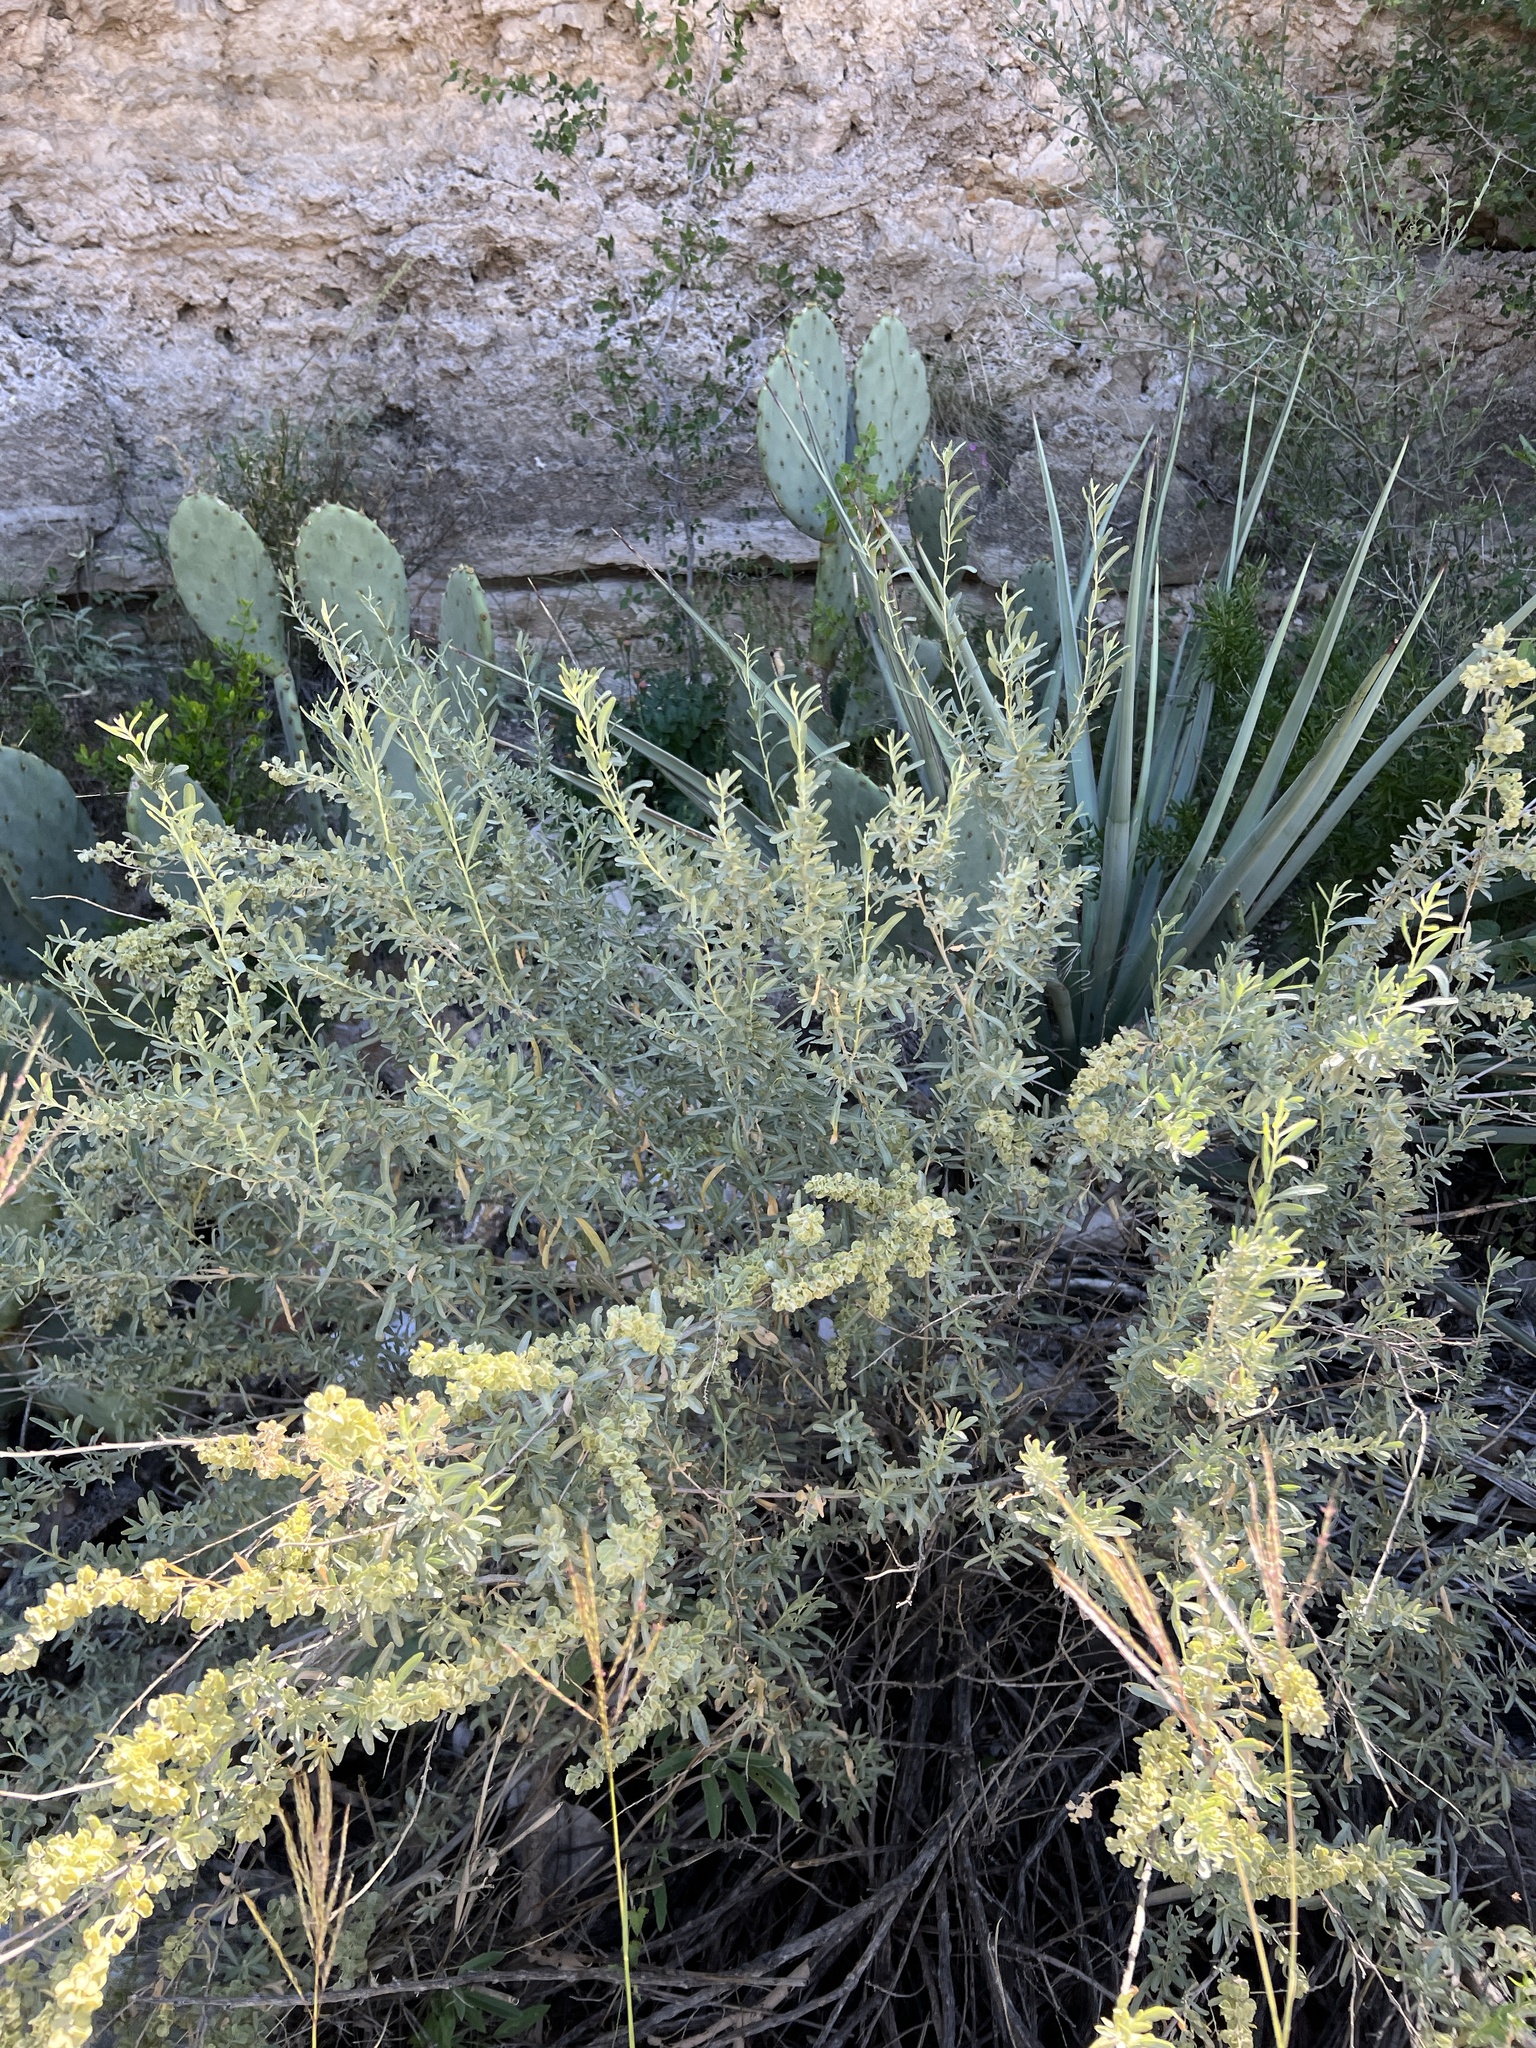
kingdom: Plantae
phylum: Tracheophyta
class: Magnoliopsida
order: Caryophyllales
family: Amaranthaceae
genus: Atriplex
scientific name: Atriplex canescens
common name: Four-wing saltbush
